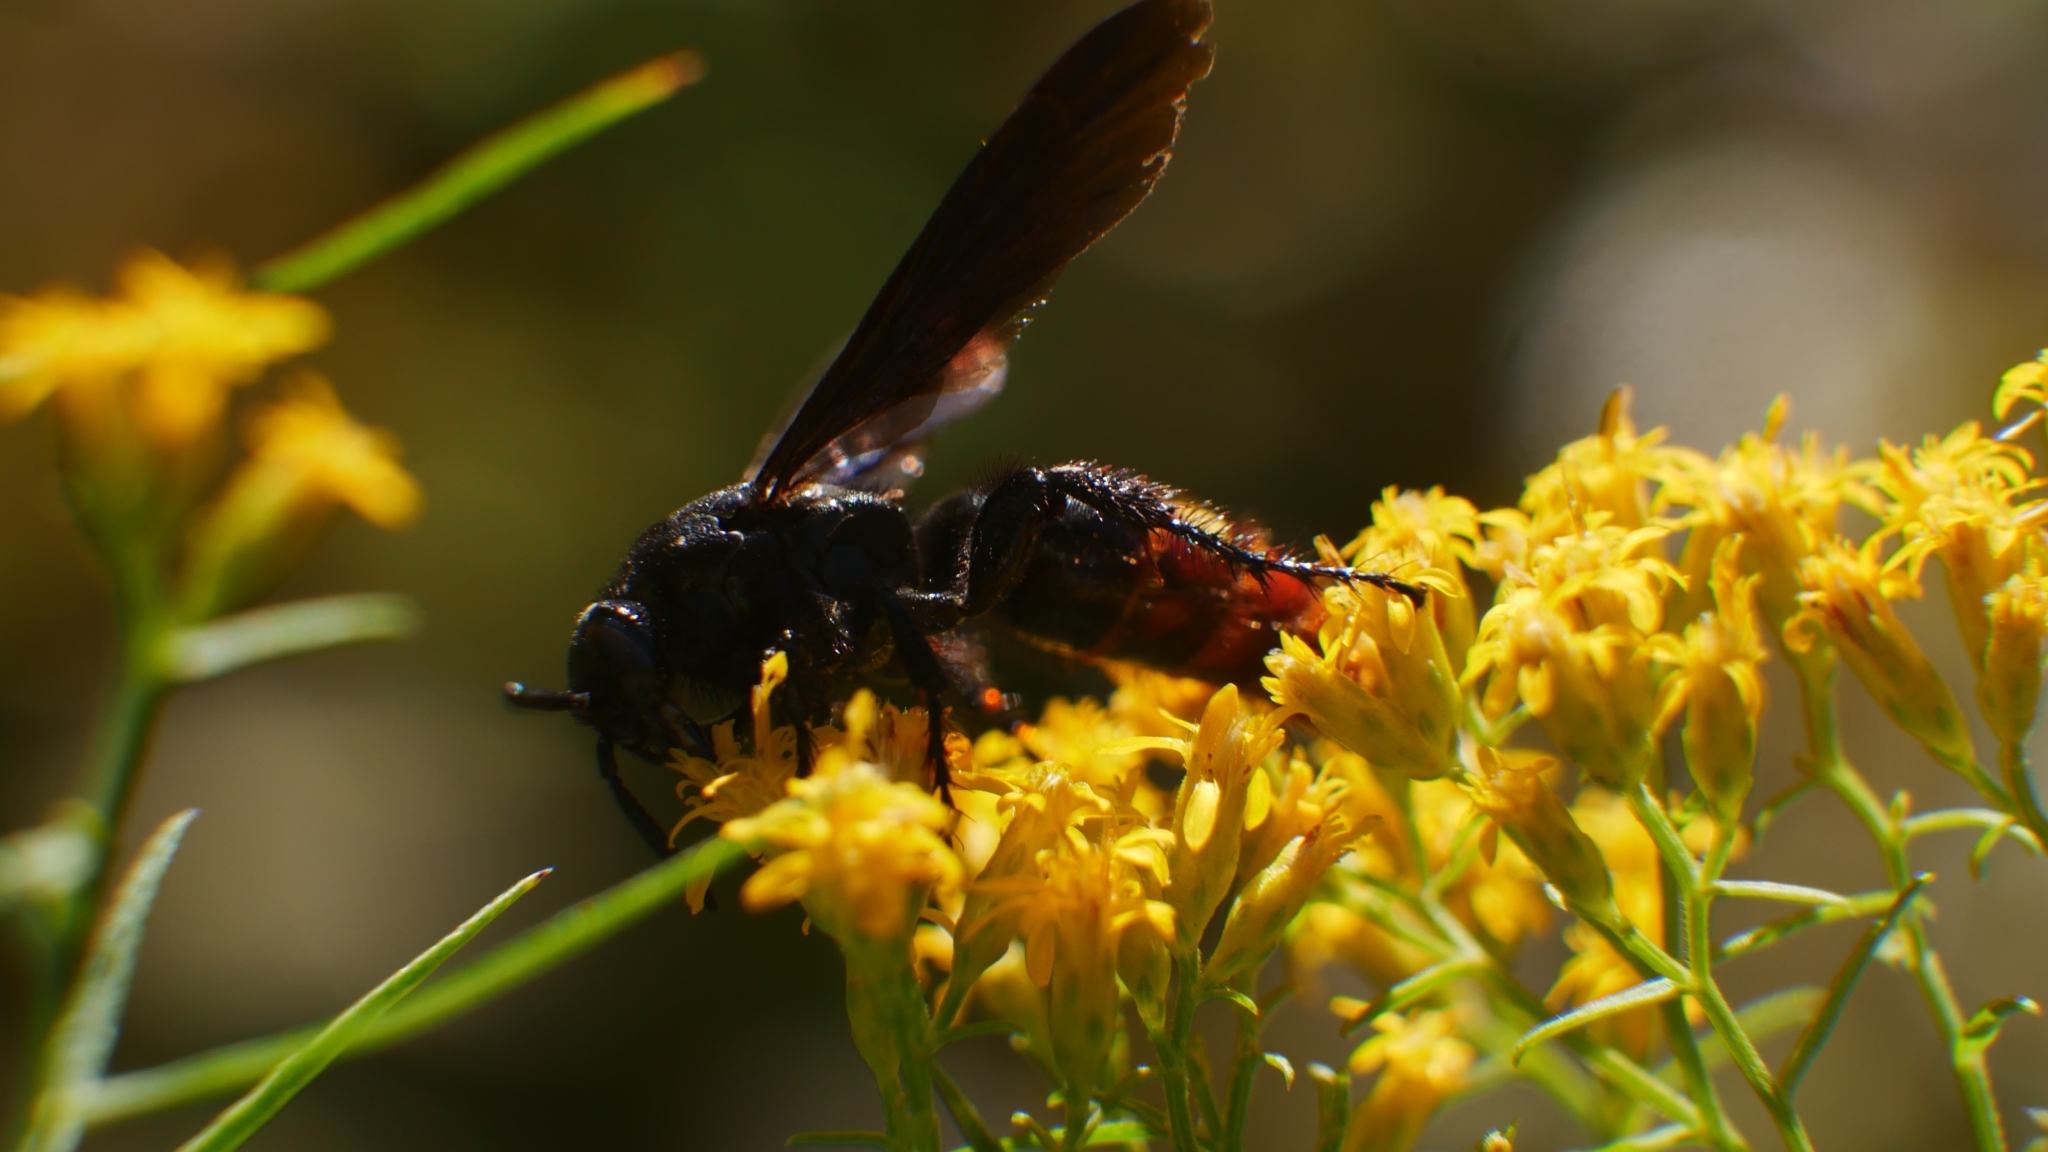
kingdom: Animalia
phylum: Arthropoda
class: Insecta
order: Hymenoptera
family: Scoliidae
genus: Scolia
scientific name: Scolia dubia
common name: Blue-winged scoliid wasp
